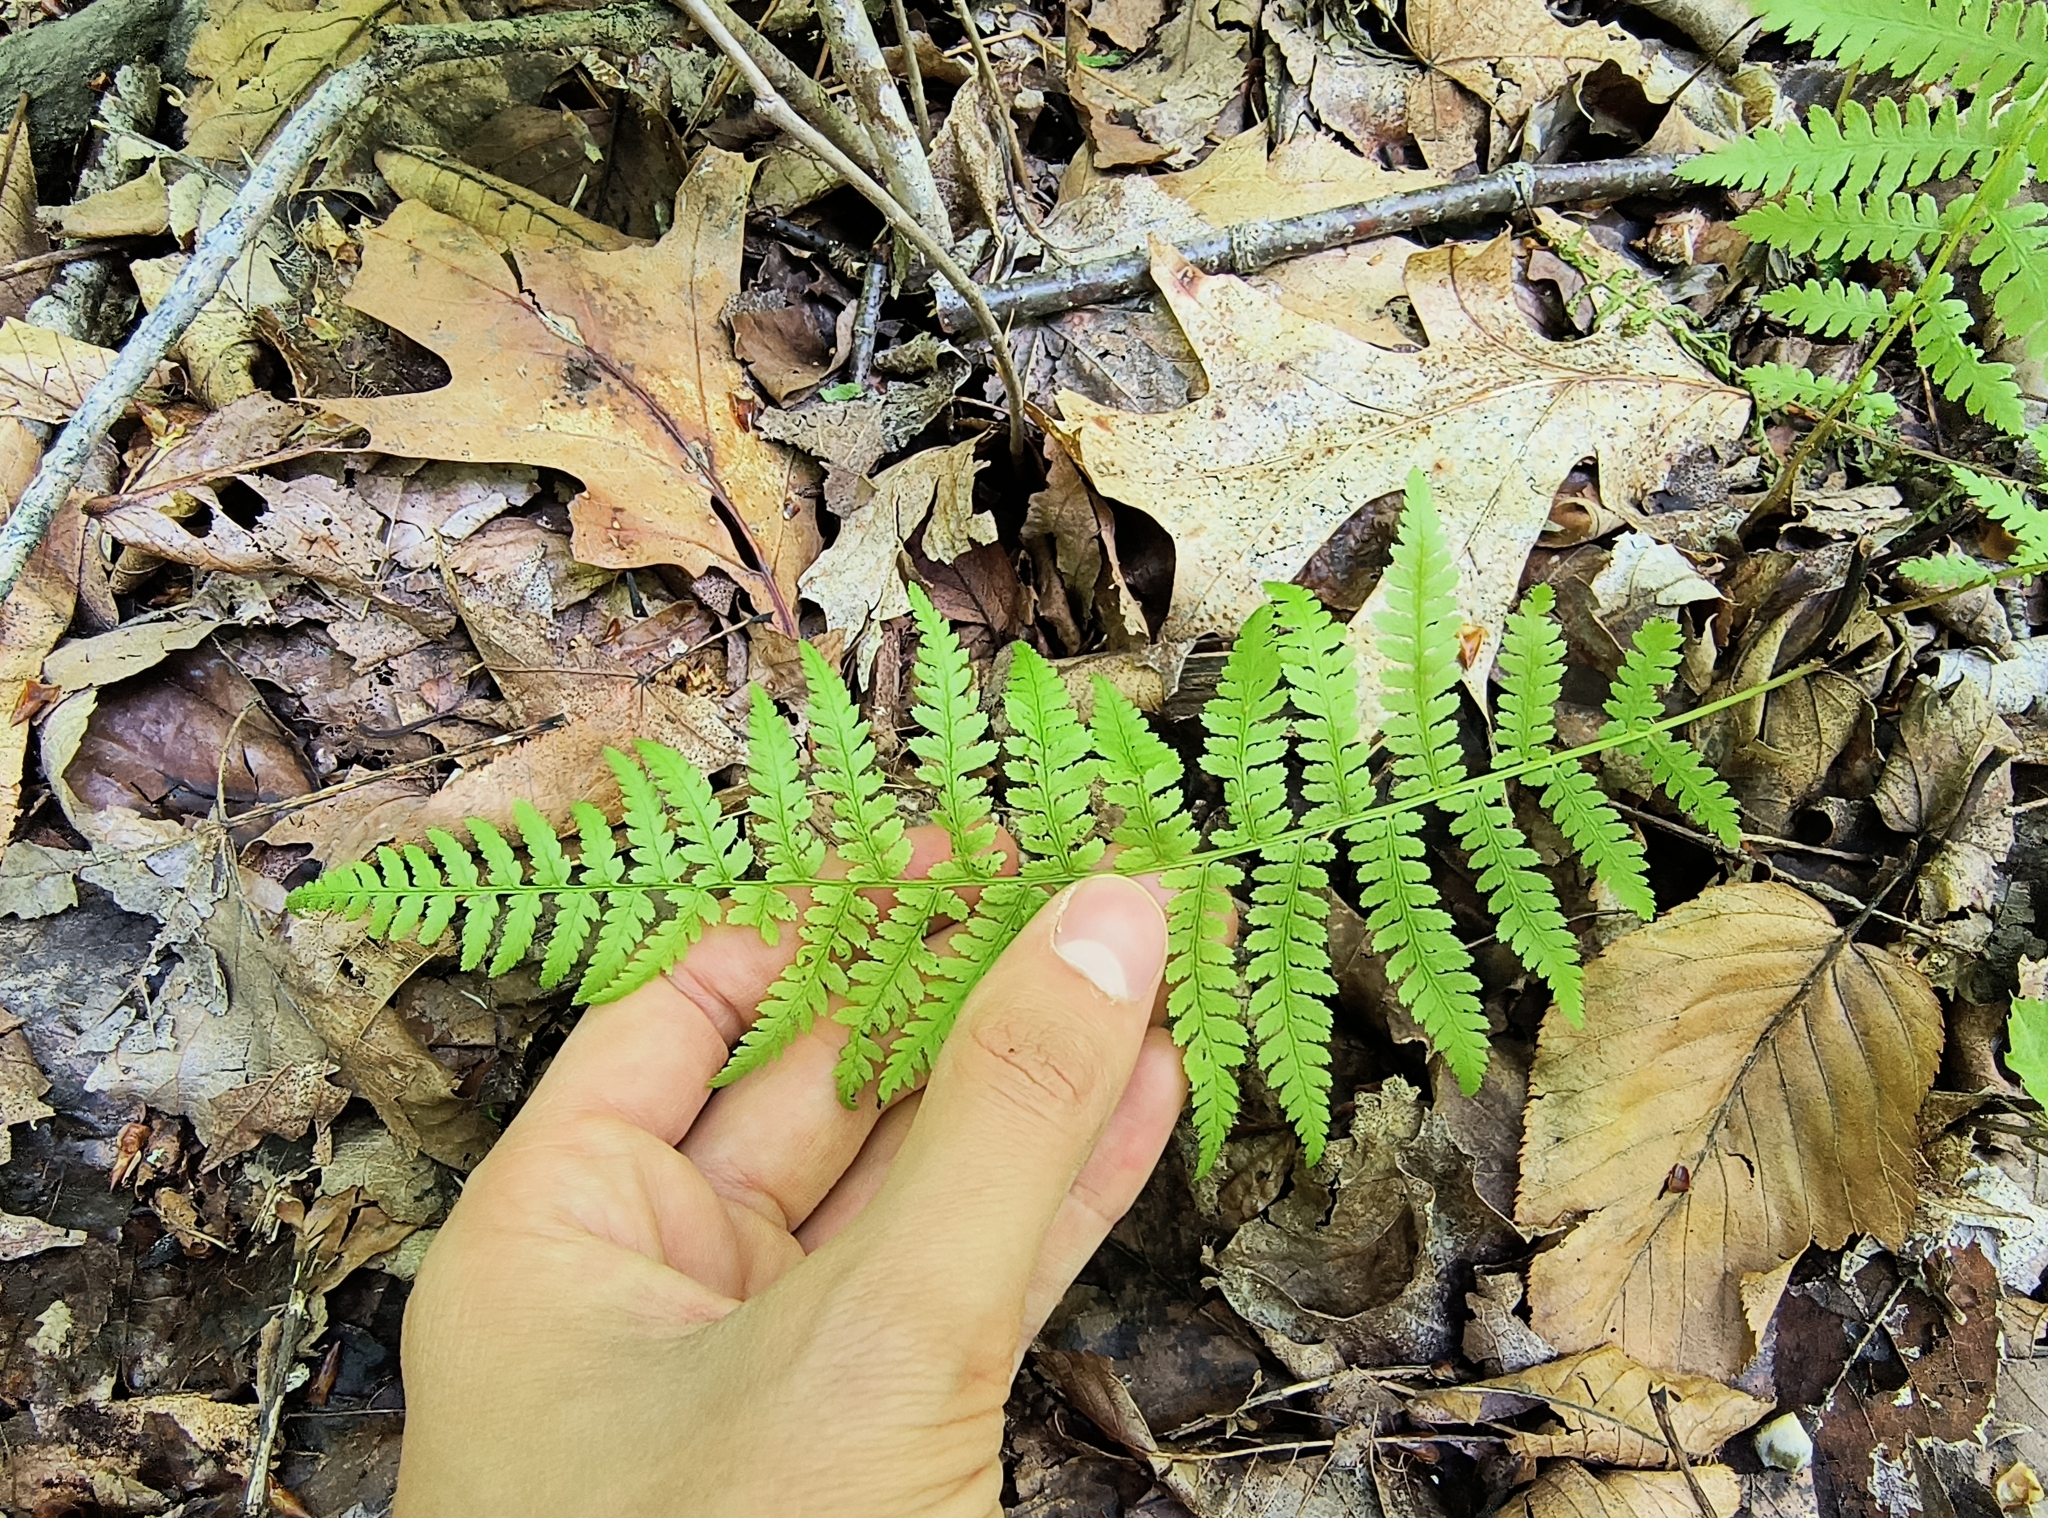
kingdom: Plantae
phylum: Tracheophyta
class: Polypodiopsida
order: Polypodiales
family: Athyriaceae
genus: Athyrium
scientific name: Athyrium angustum
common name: Northern lady fern
